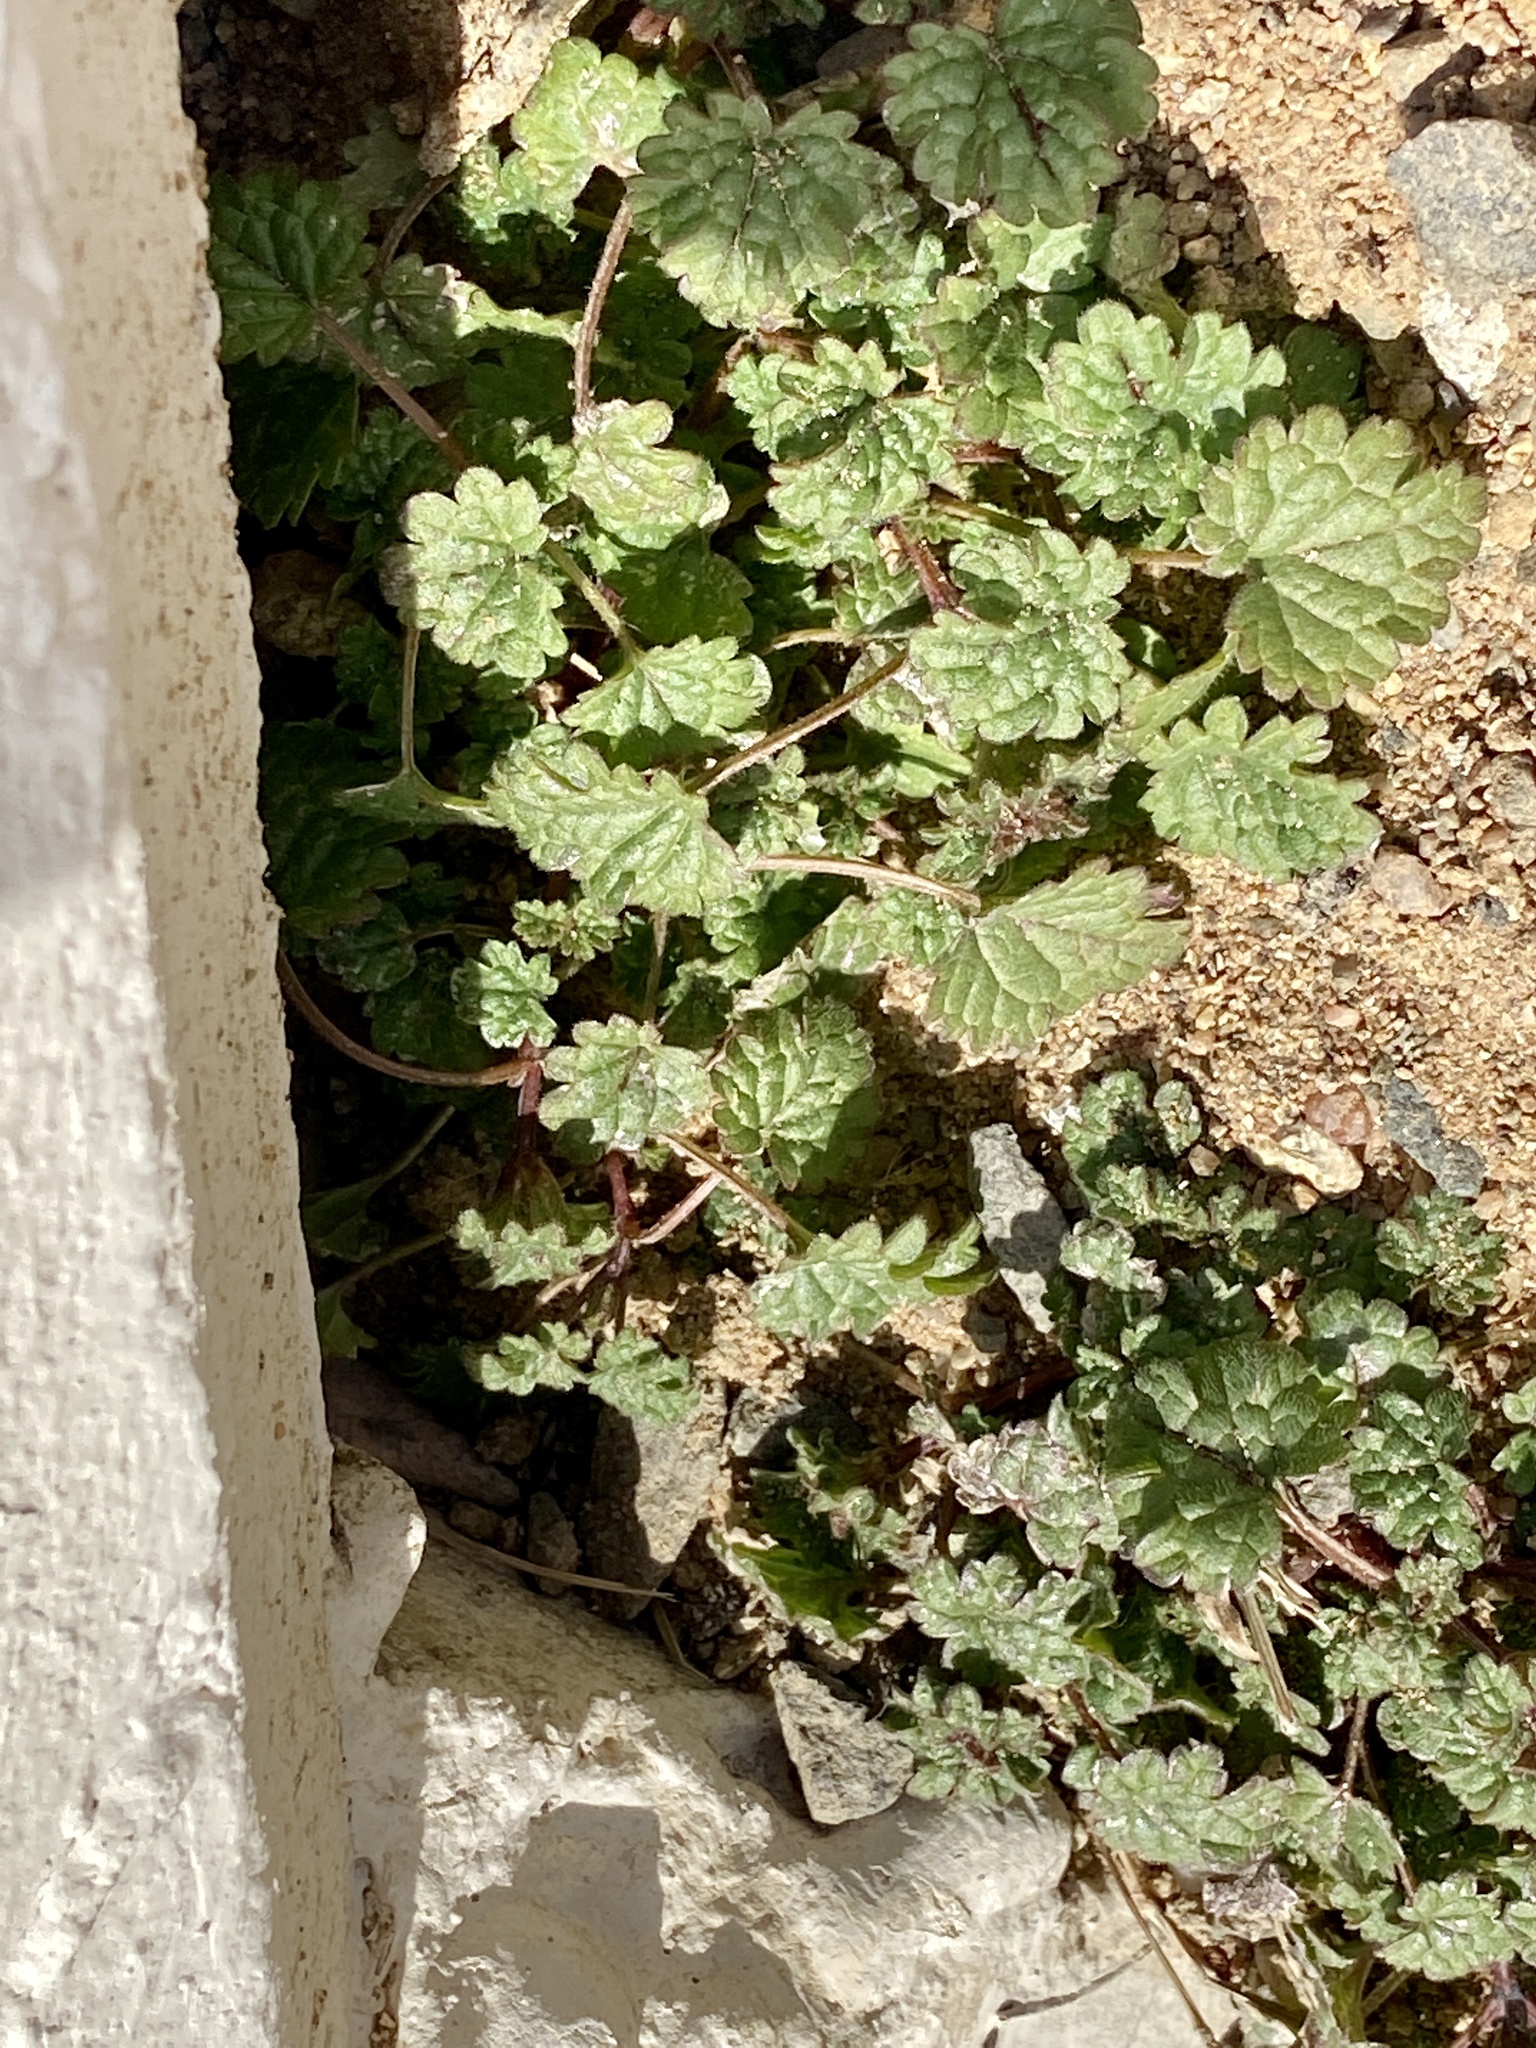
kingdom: Plantae
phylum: Tracheophyta
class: Magnoliopsida
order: Lamiales
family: Lamiaceae
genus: Lamium
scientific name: Lamium amplexicaule
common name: Henbit dead-nettle
